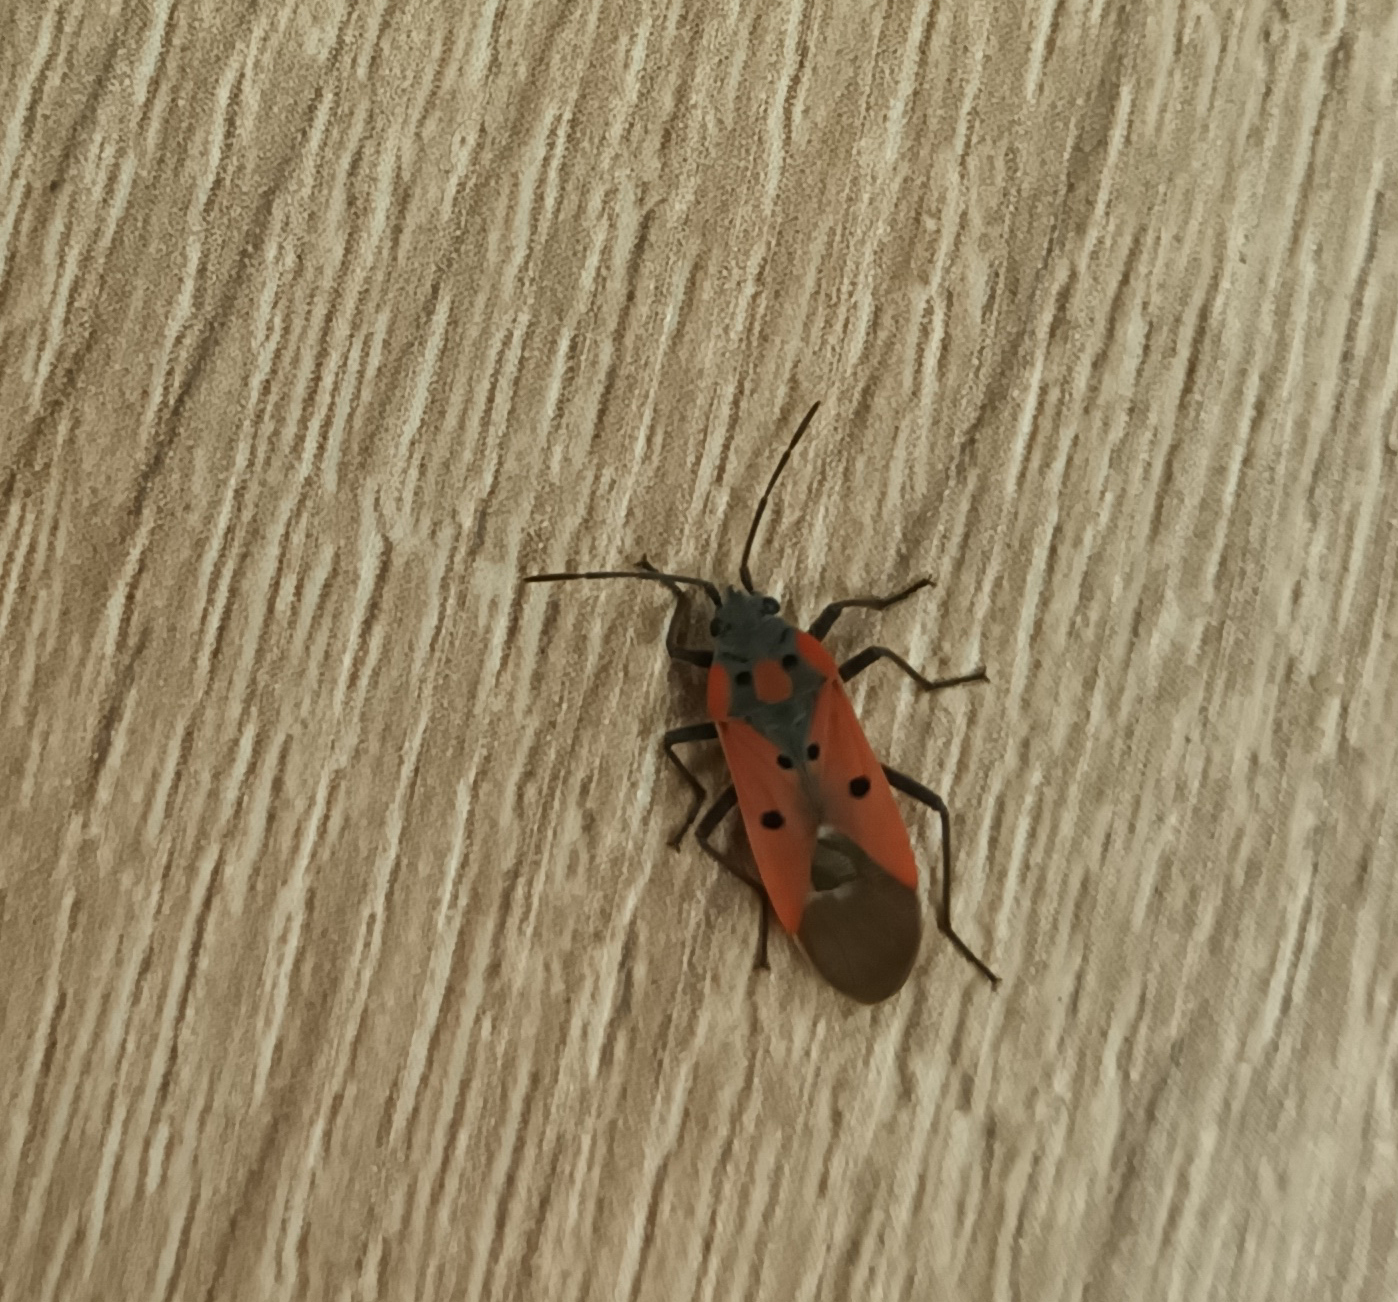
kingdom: Animalia
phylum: Arthropoda
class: Insecta
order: Hemiptera
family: Lygaeidae
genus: Lygaeus
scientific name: Lygaeus creticus
